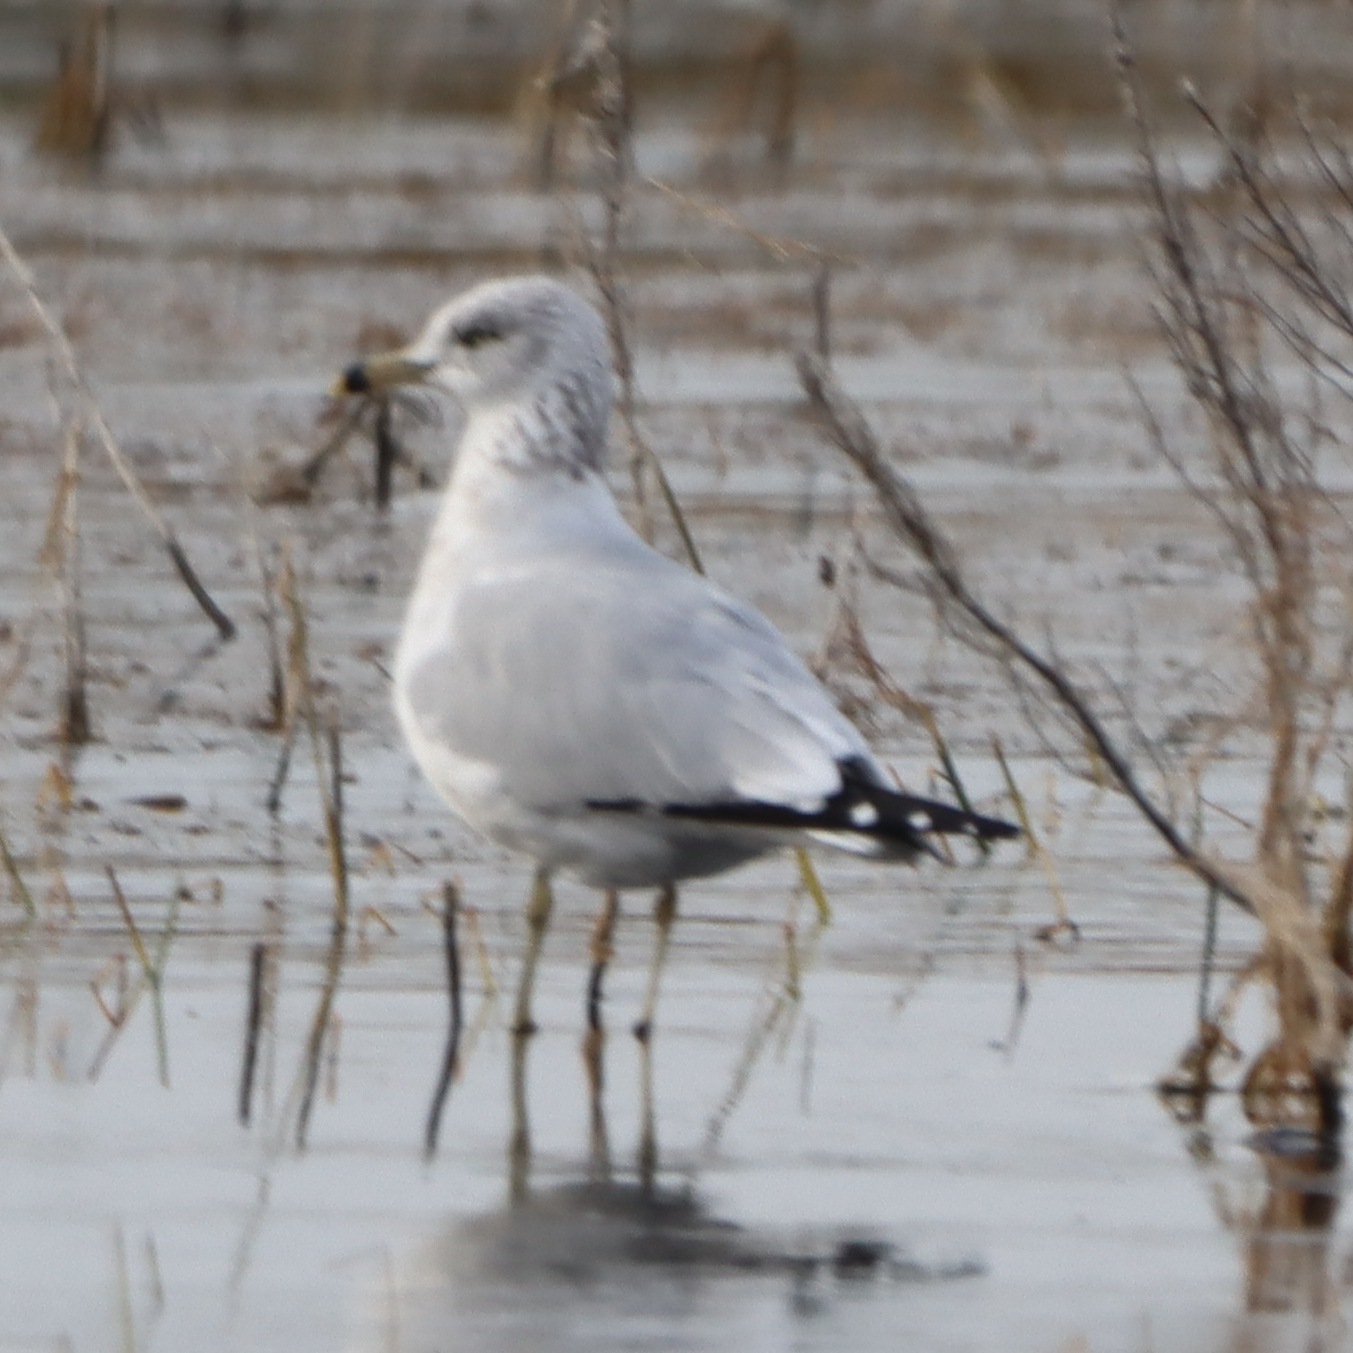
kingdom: Animalia
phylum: Chordata
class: Aves
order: Charadriiformes
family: Laridae
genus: Larus
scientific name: Larus delawarensis
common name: Ring-billed gull
